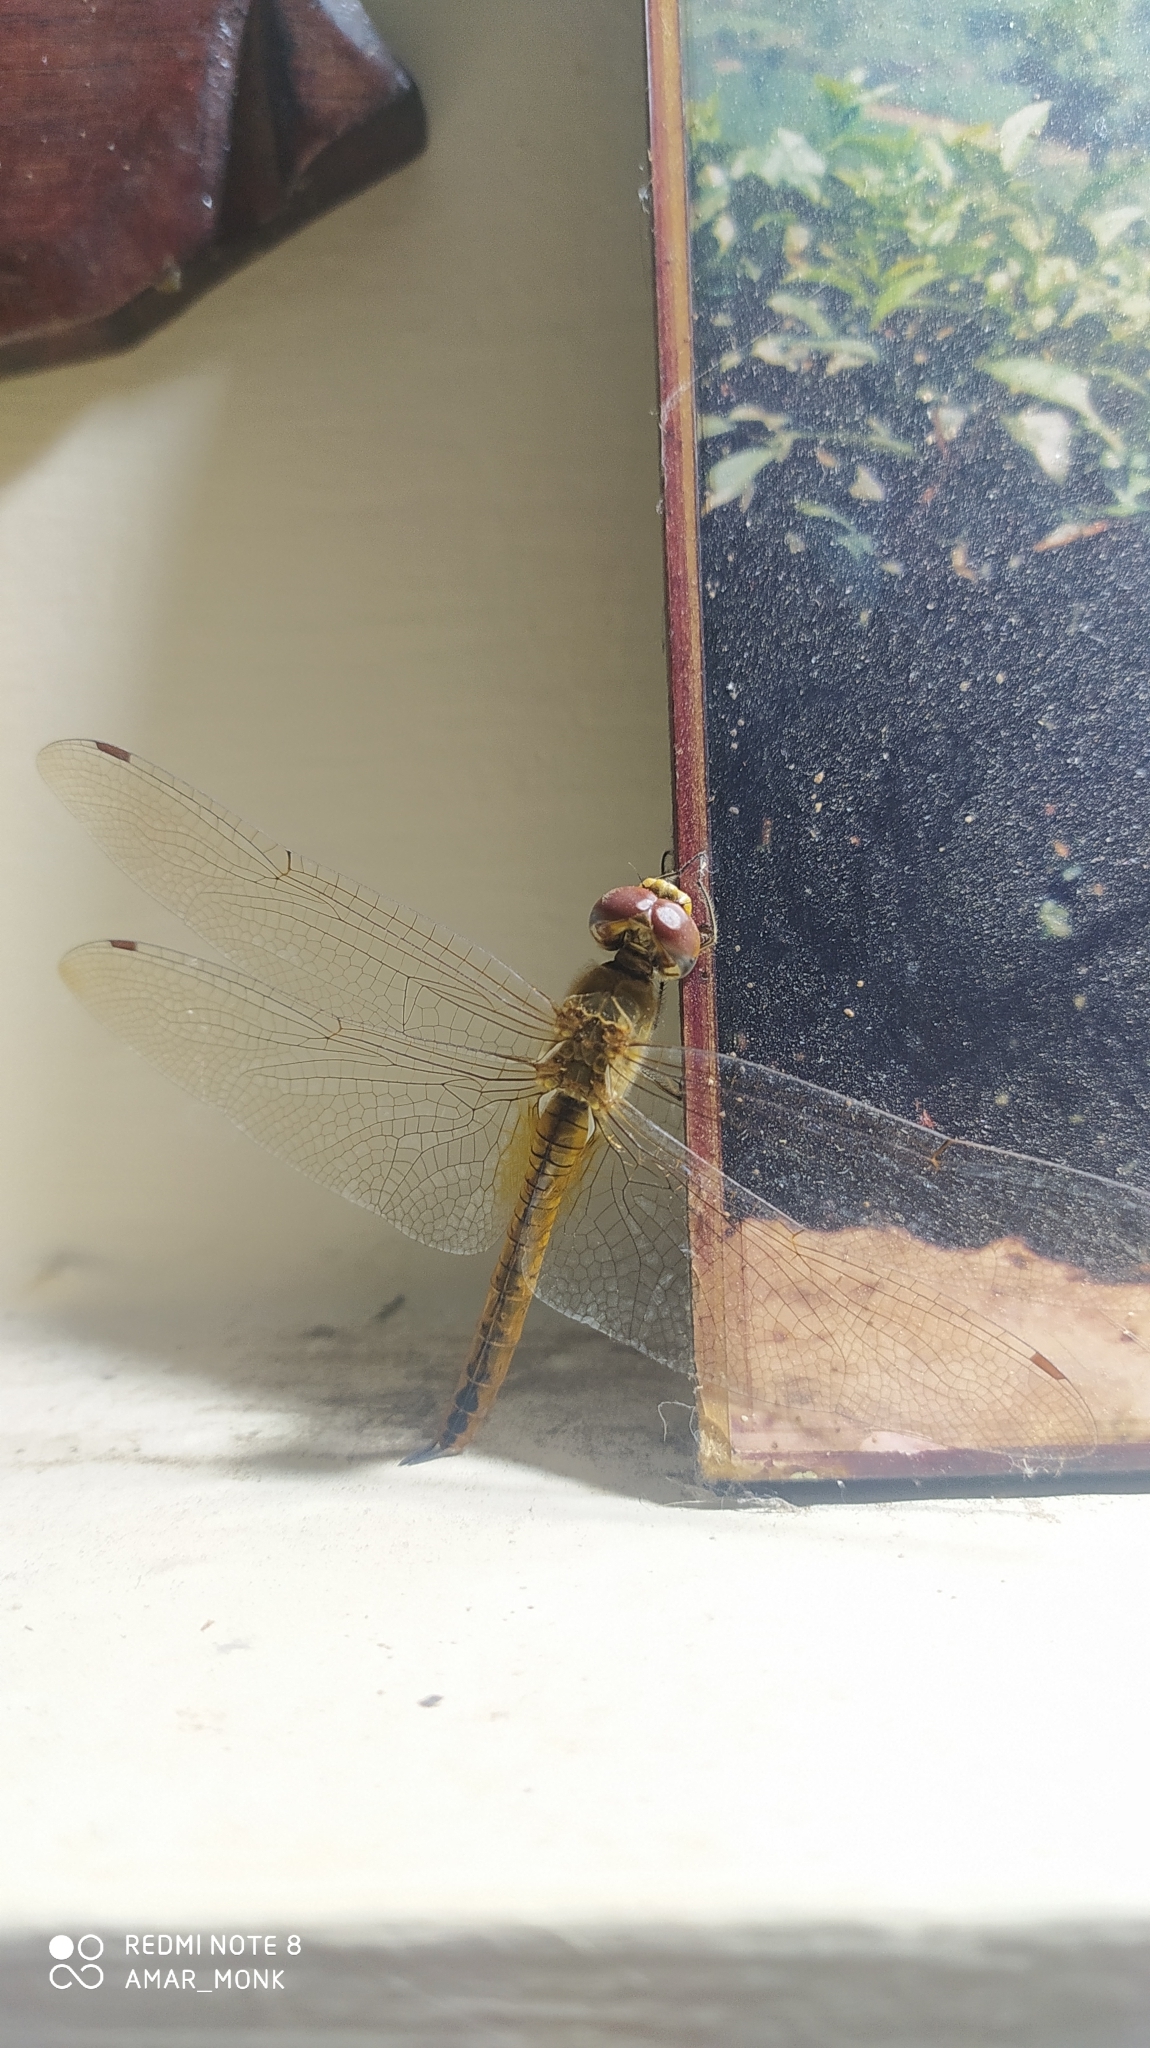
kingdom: Animalia
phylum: Arthropoda
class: Insecta
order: Odonata
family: Libellulidae
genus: Pantala
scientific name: Pantala flavescens
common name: Wandering glider
